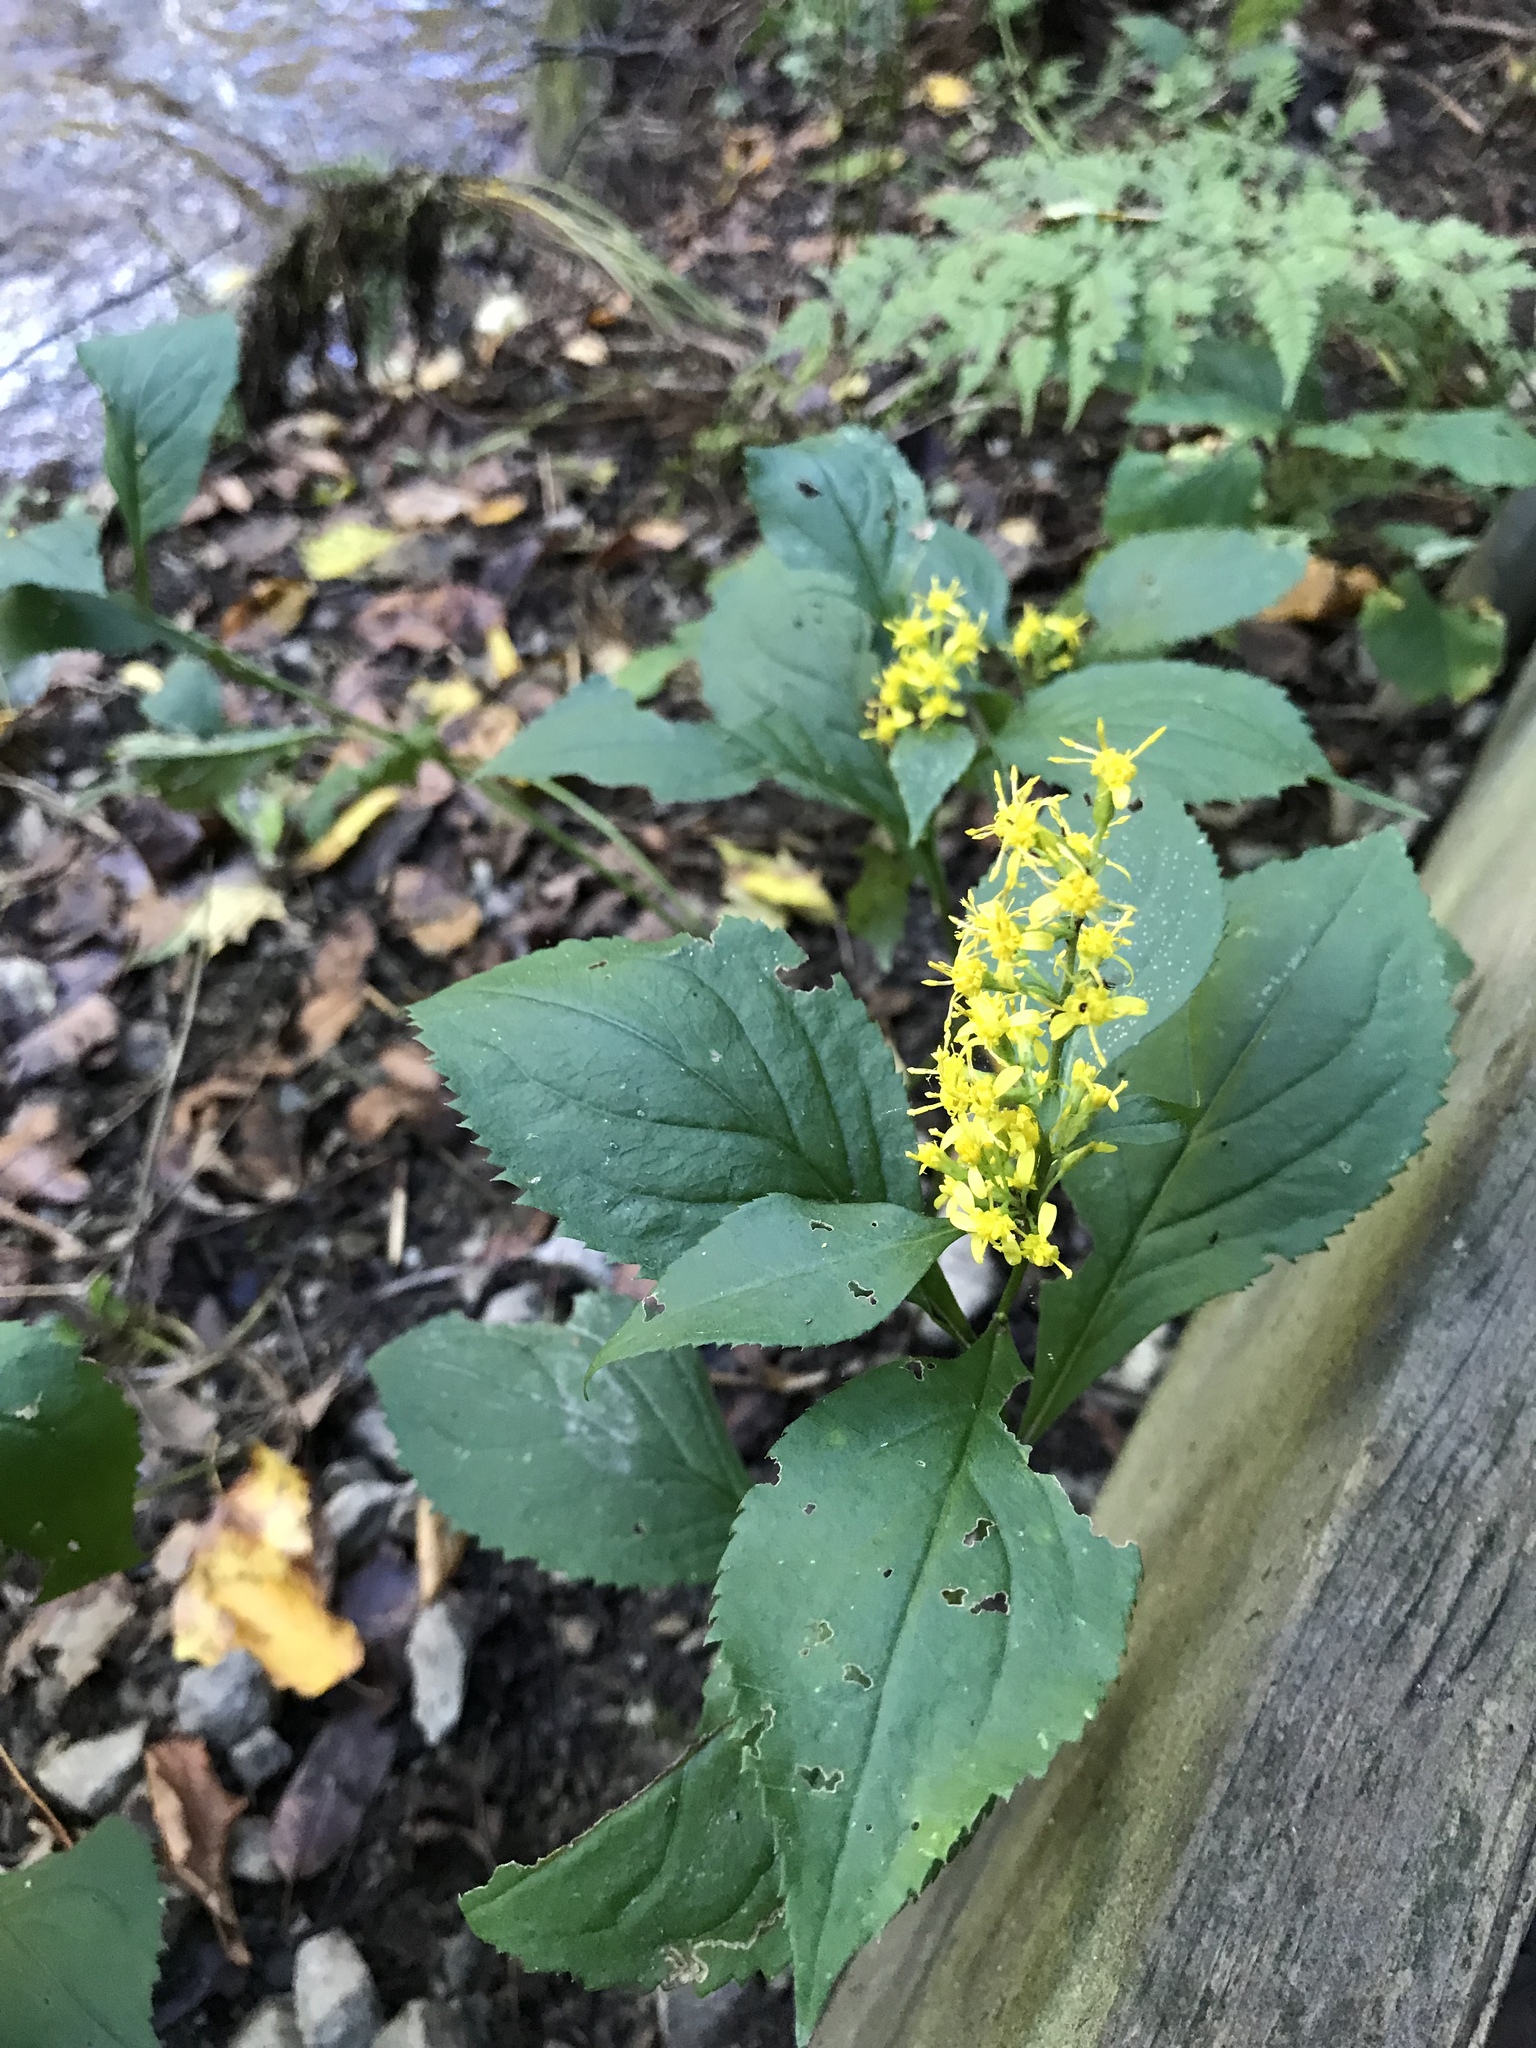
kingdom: Plantae
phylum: Tracheophyta
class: Magnoliopsida
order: Asterales
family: Asteraceae
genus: Solidago
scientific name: Solidago flexicaulis
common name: Zig-zag goldenrod
